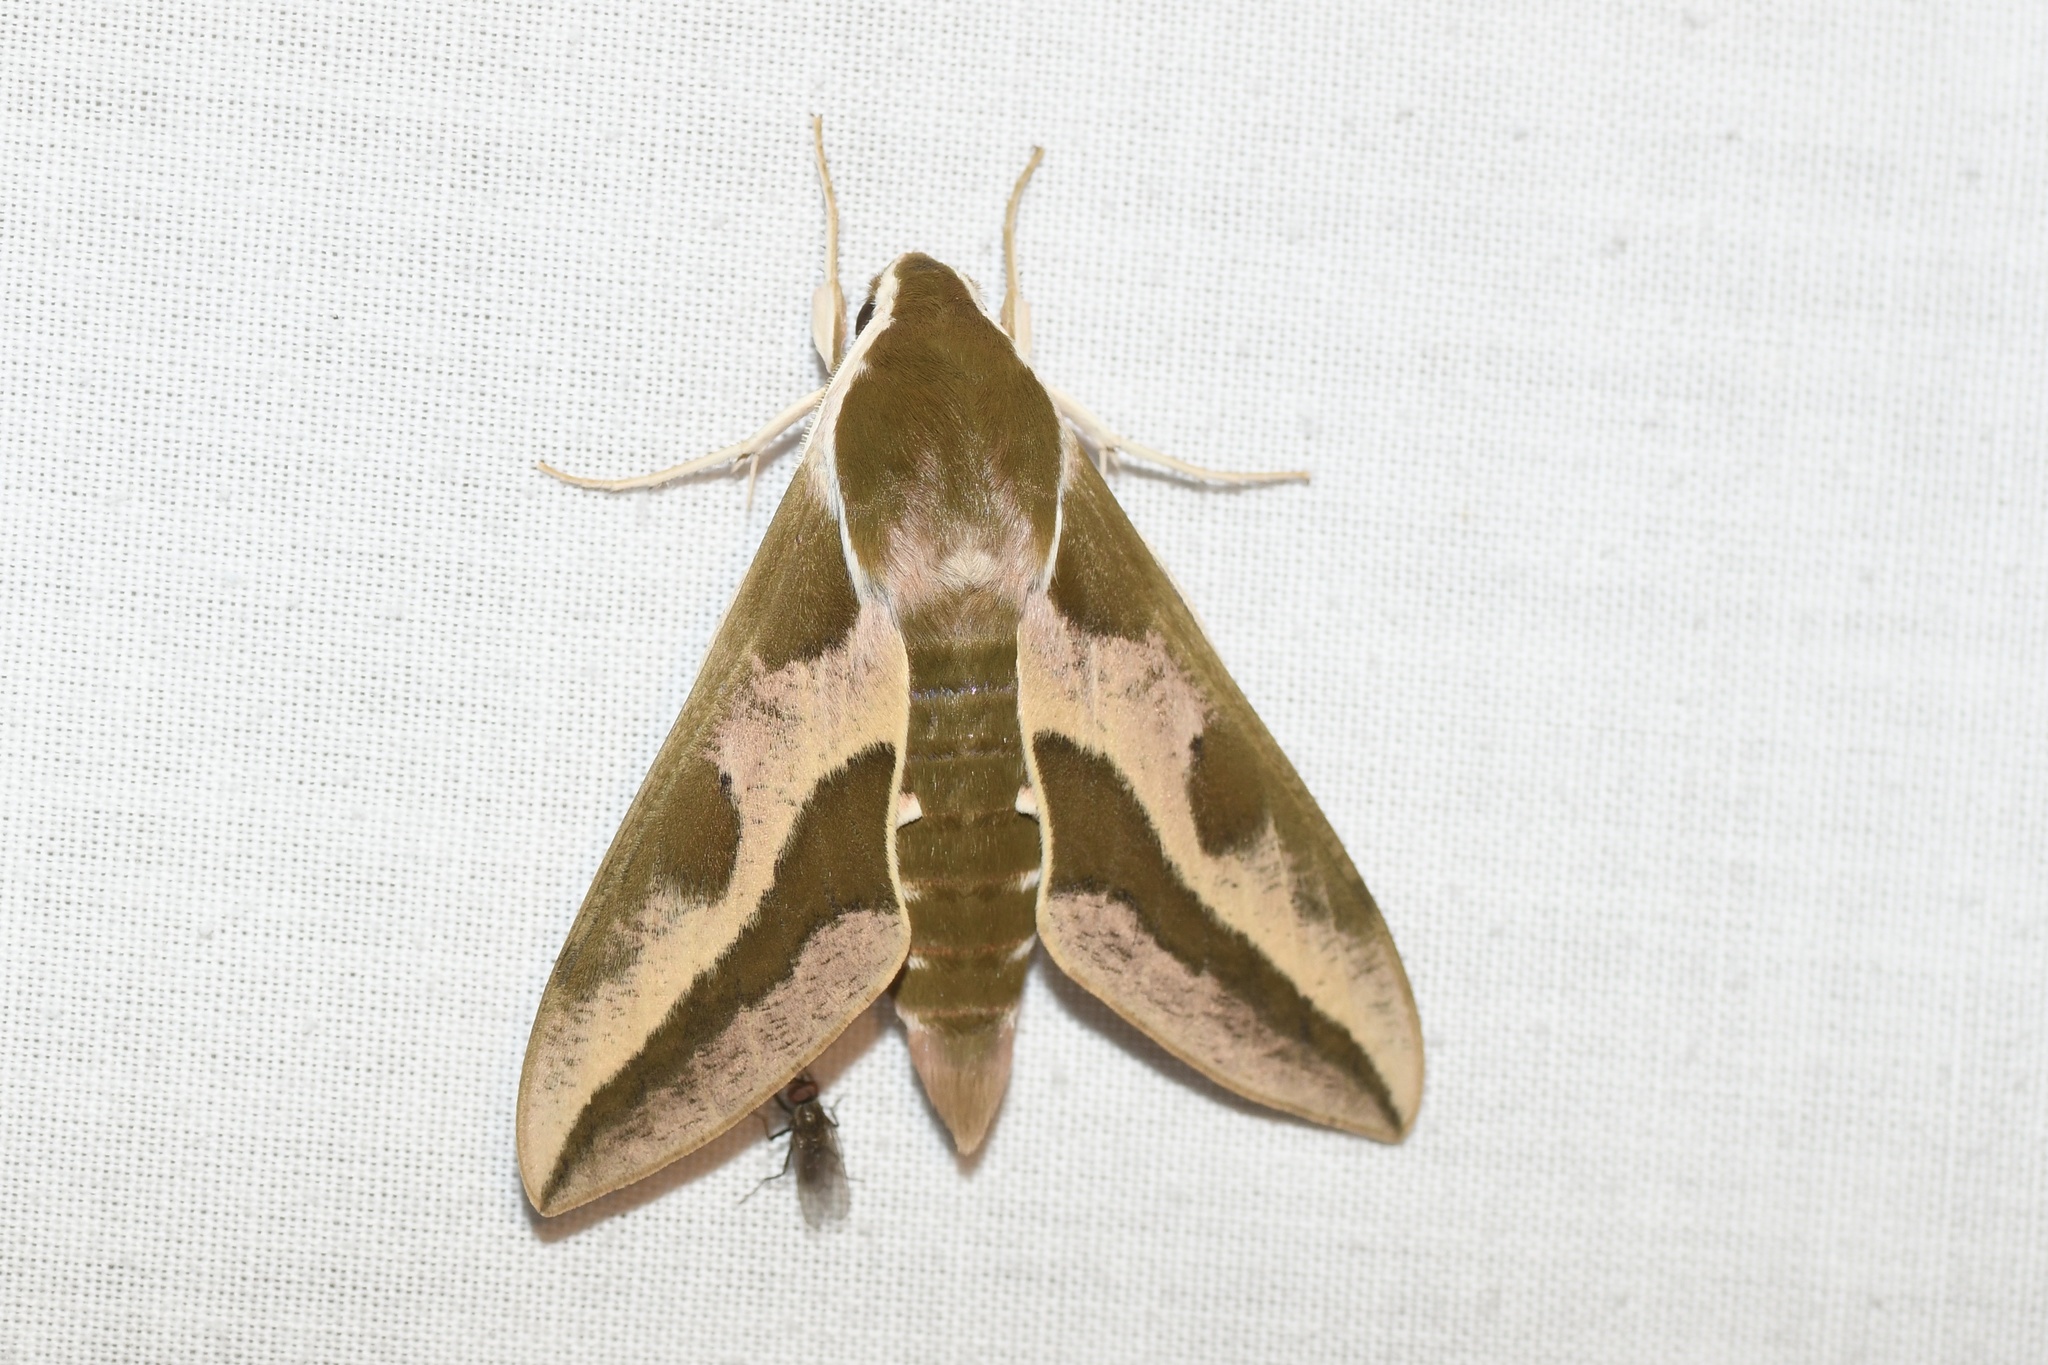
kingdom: Animalia
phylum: Arthropoda
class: Insecta
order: Lepidoptera
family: Sphingidae
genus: Hyles
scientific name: Hyles euphorbiae
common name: Spurge hawk-moth
